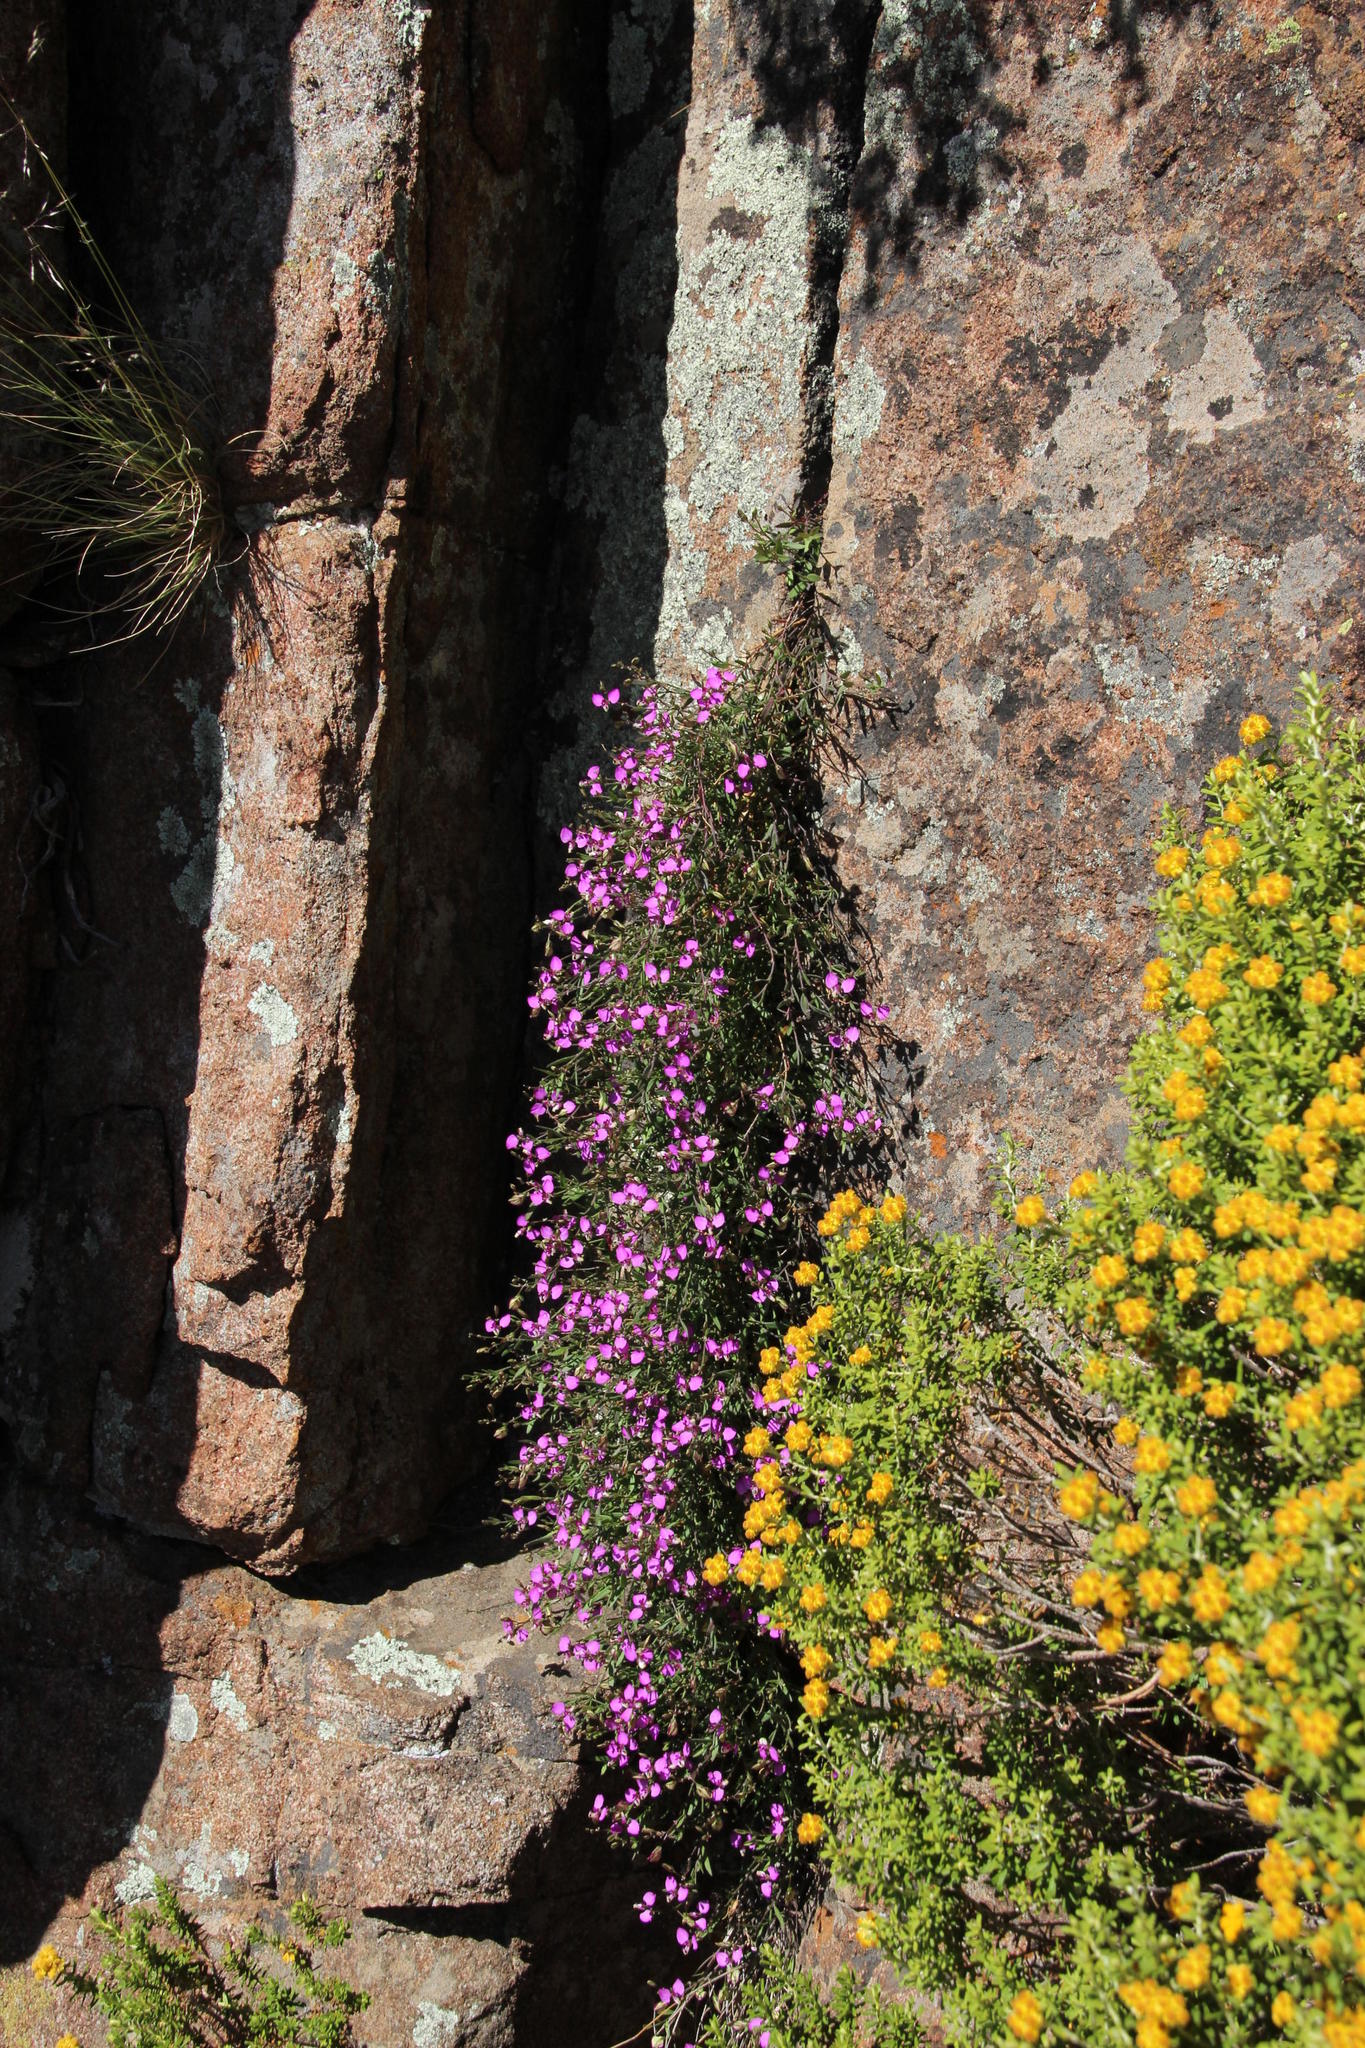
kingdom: Plantae
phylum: Tracheophyta
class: Magnoliopsida
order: Asterales
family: Asteraceae
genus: Helichrysum
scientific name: Helichrysum trilineatum
